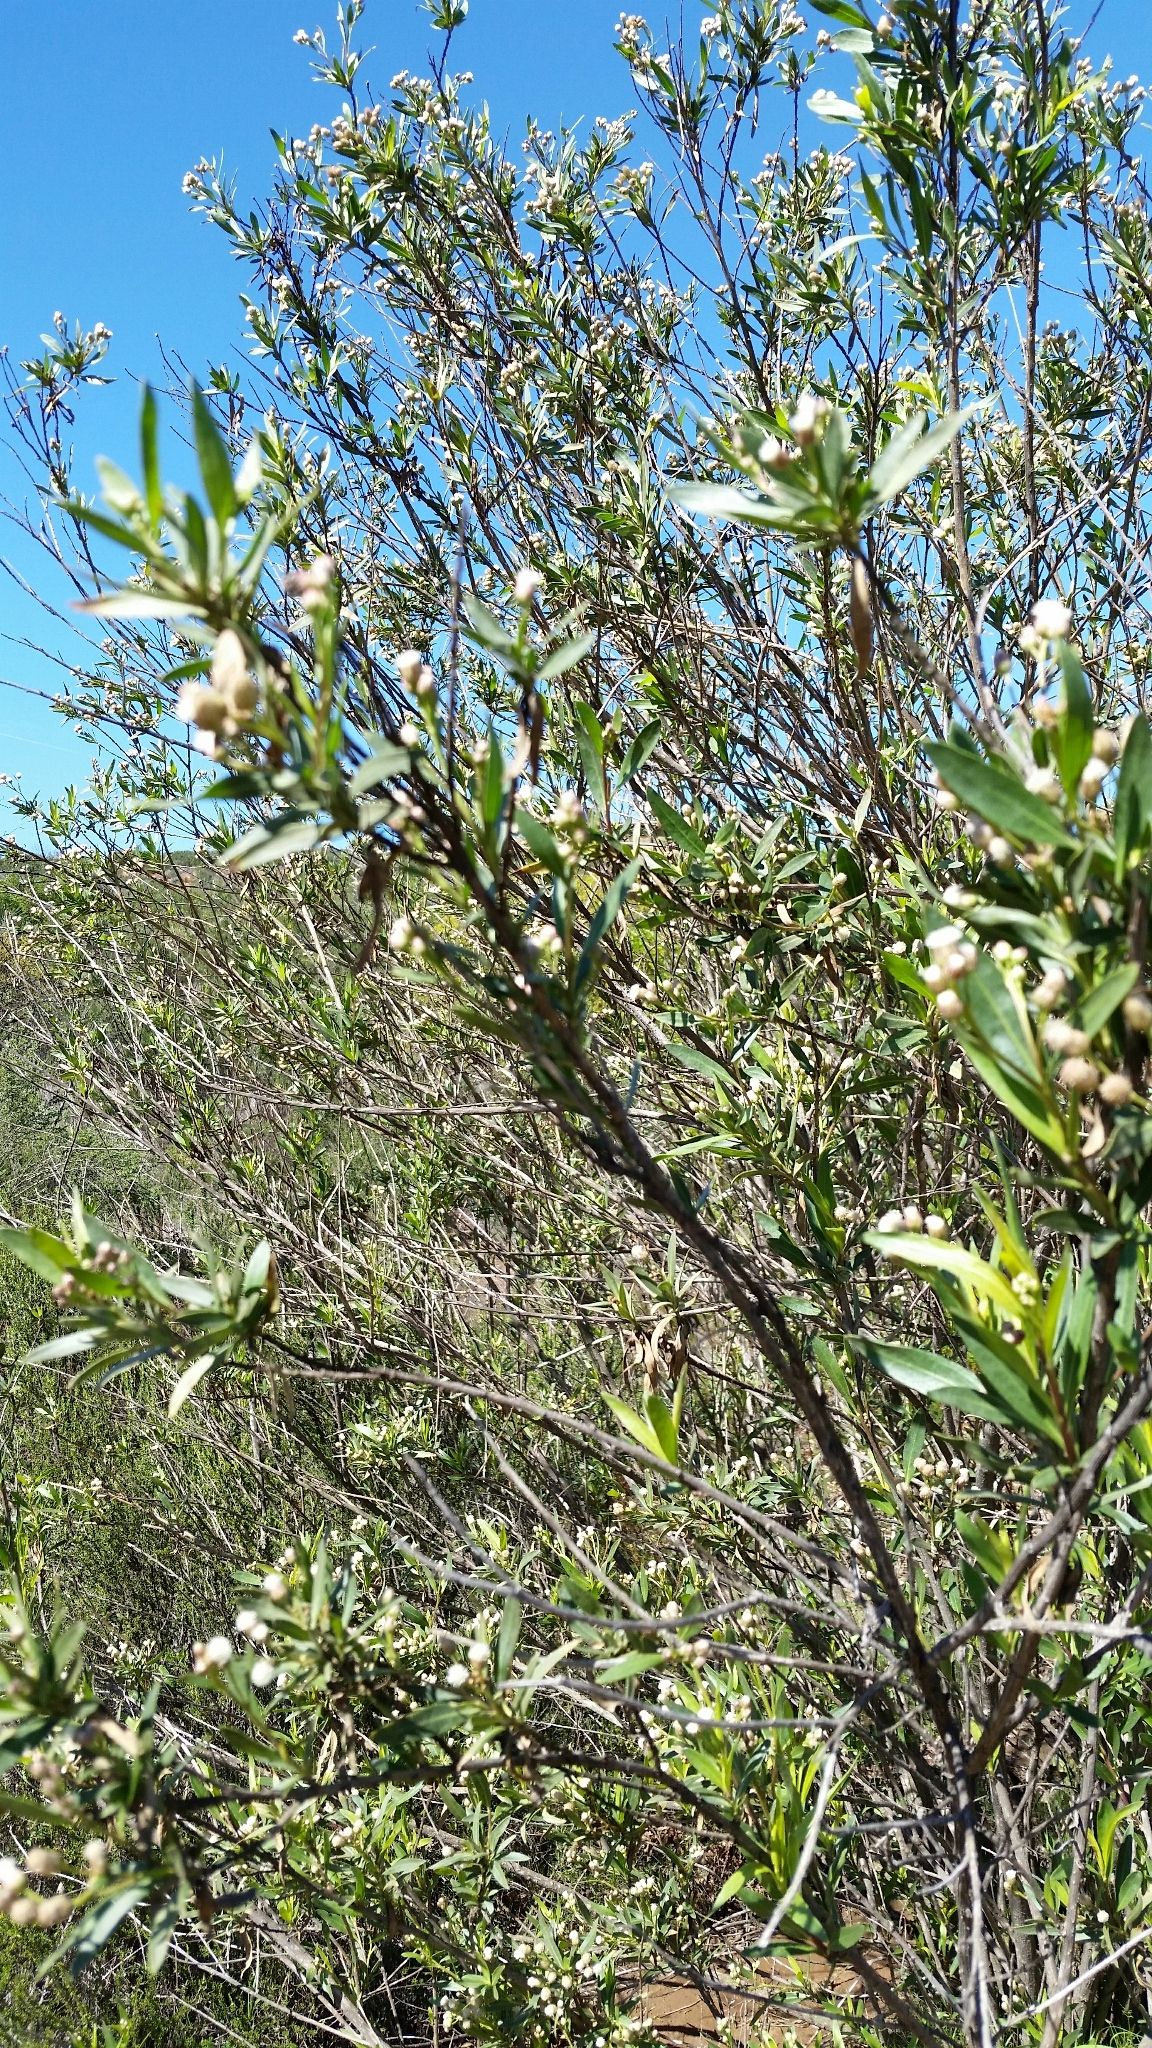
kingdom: Plantae
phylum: Tracheophyta
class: Magnoliopsida
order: Asterales
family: Asteraceae
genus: Baccharis
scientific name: Baccharis salicifolia
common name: Sticky baccharis
